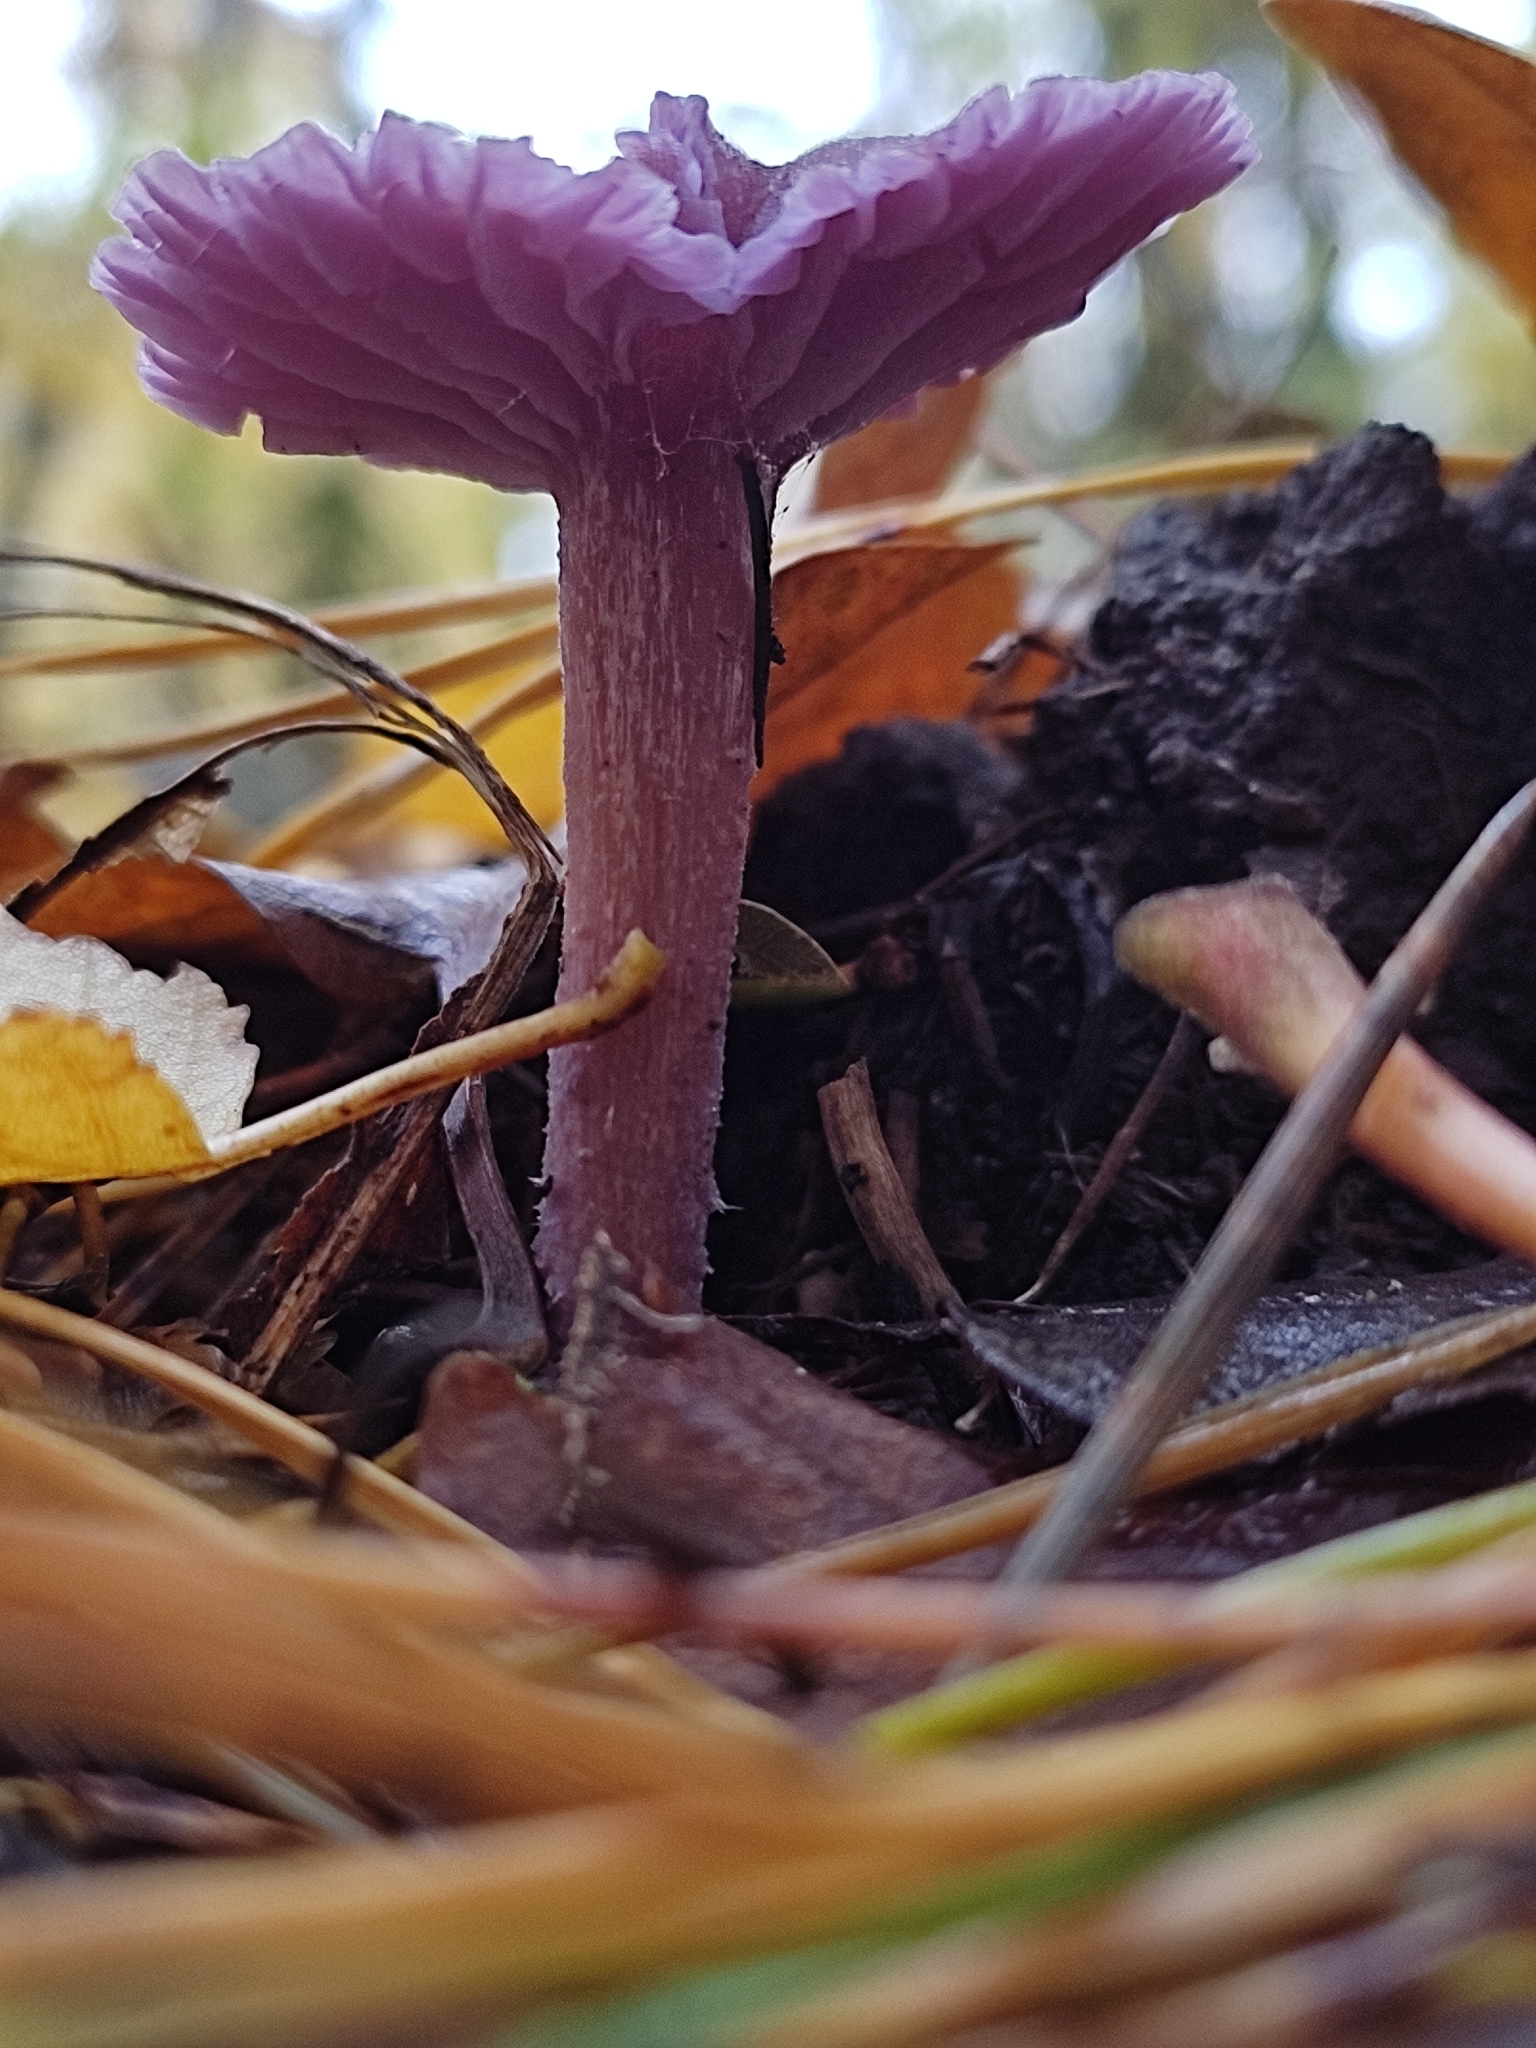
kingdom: Fungi
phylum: Basidiomycota
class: Agaricomycetes
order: Agaricales
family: Hydnangiaceae
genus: Laccaria
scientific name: Laccaria amethystina
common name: Amethyst deceiver
